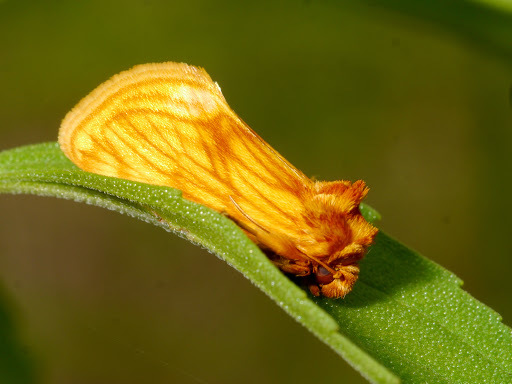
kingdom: Animalia
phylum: Arthropoda
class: Insecta
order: Lepidoptera
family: Noctuidae
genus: Cirrhophanus
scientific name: Cirrhophanus pretiosa
